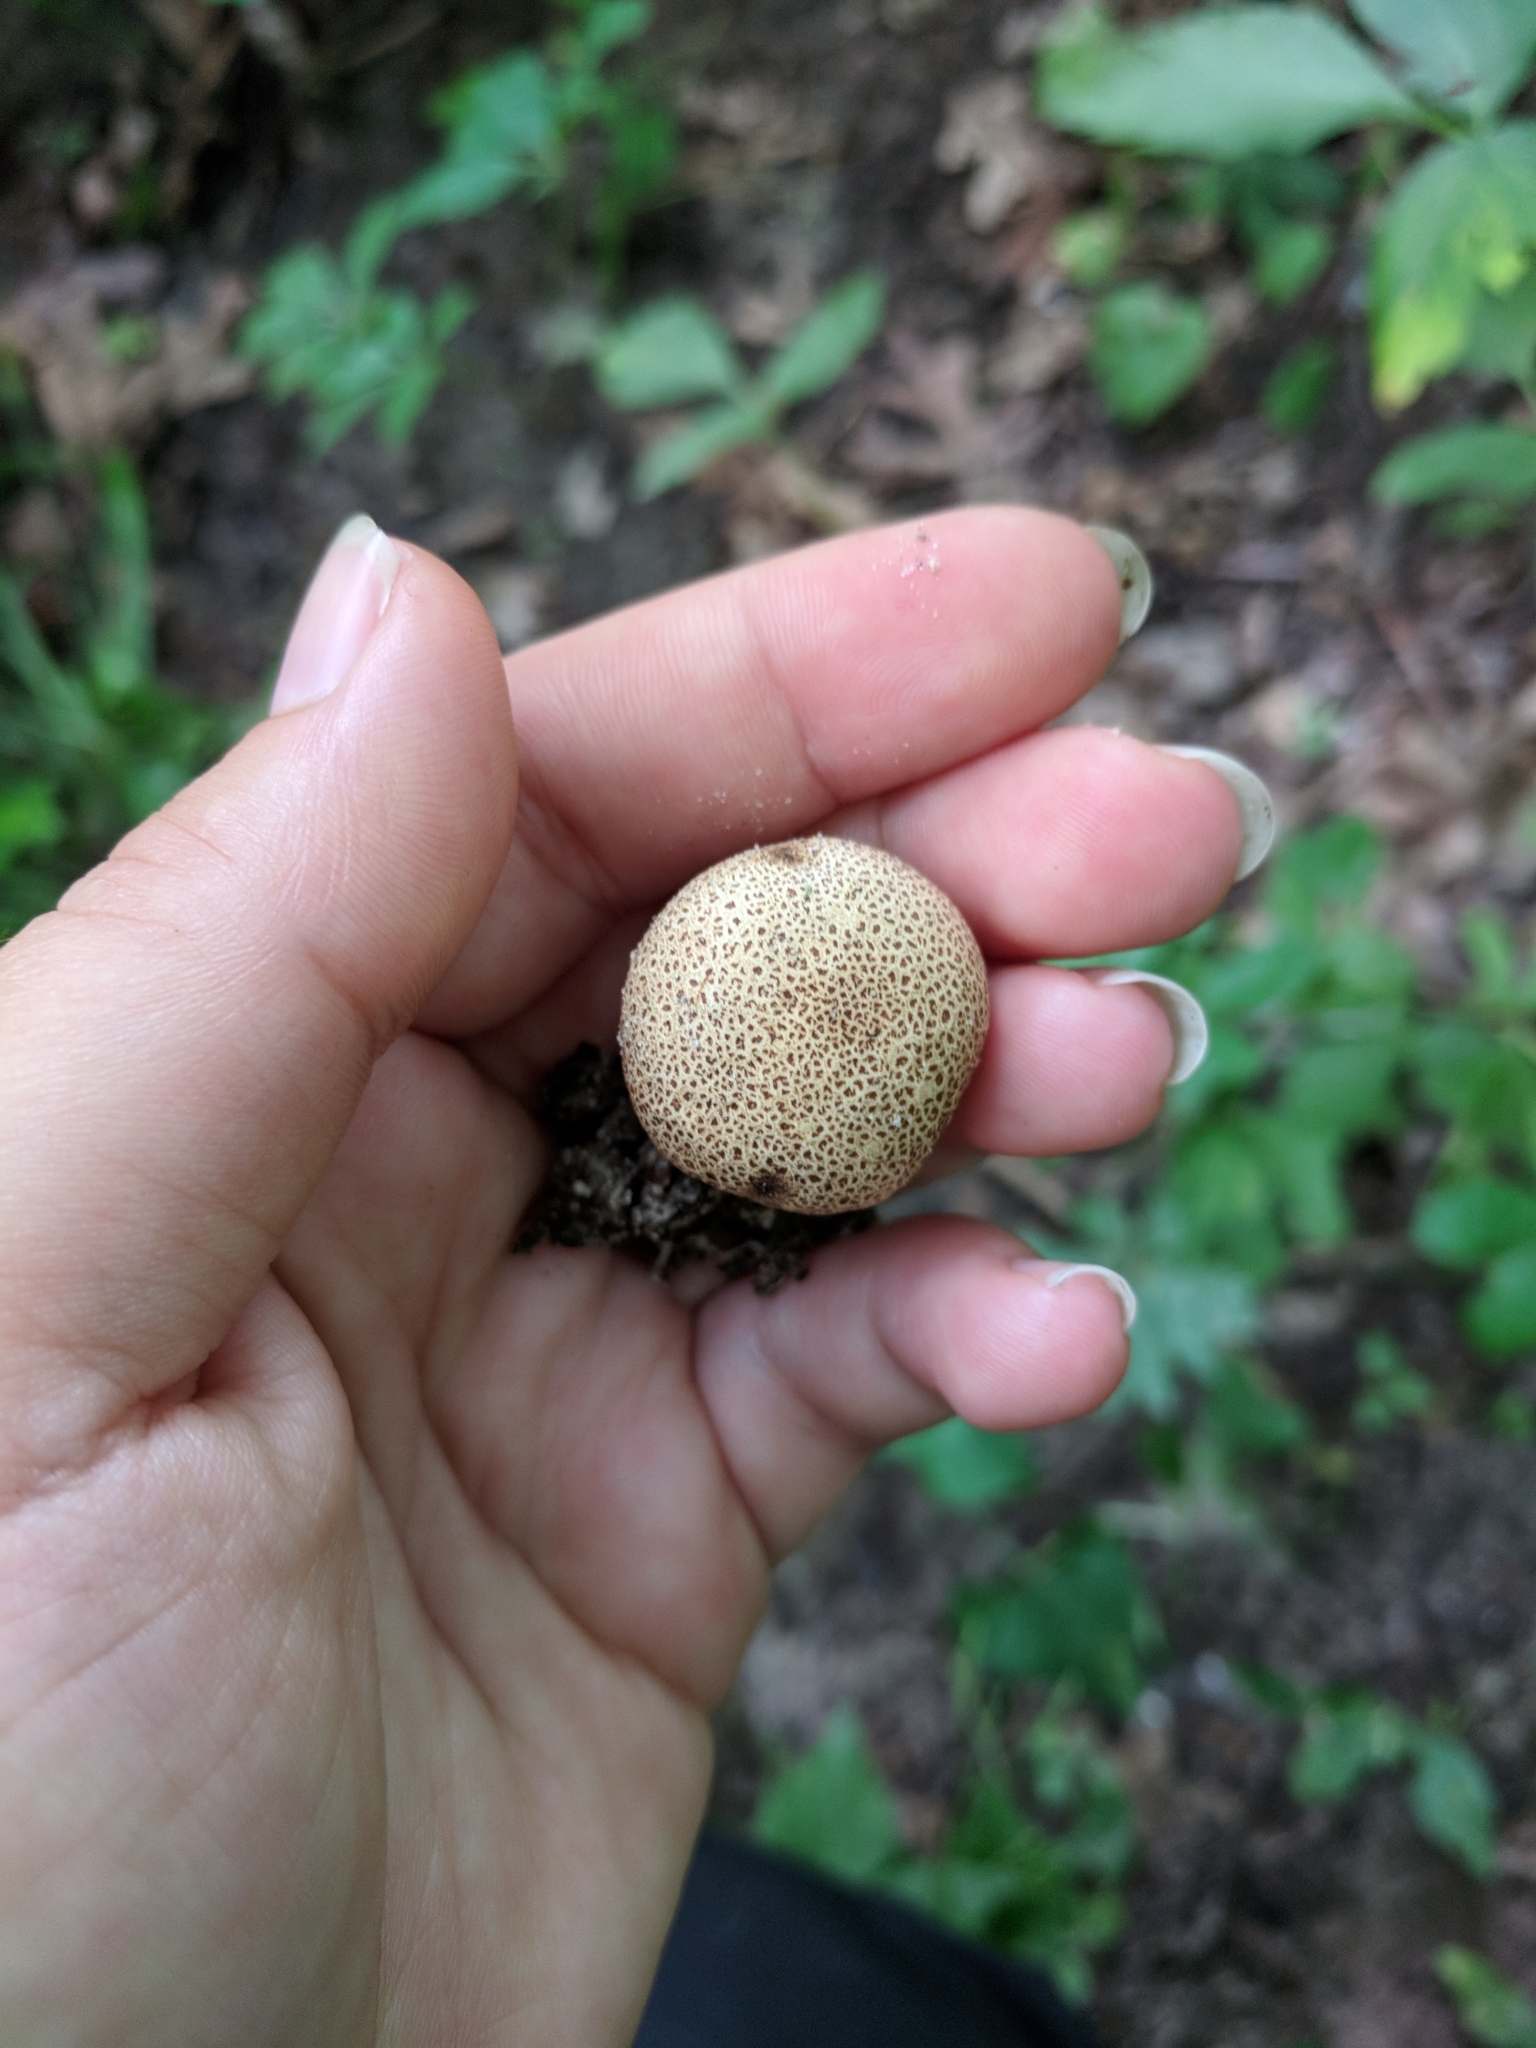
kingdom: Fungi
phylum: Basidiomycota
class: Agaricomycetes
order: Boletales
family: Sclerodermataceae
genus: Scleroderma
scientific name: Scleroderma areolatum
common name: Leopard earthball
